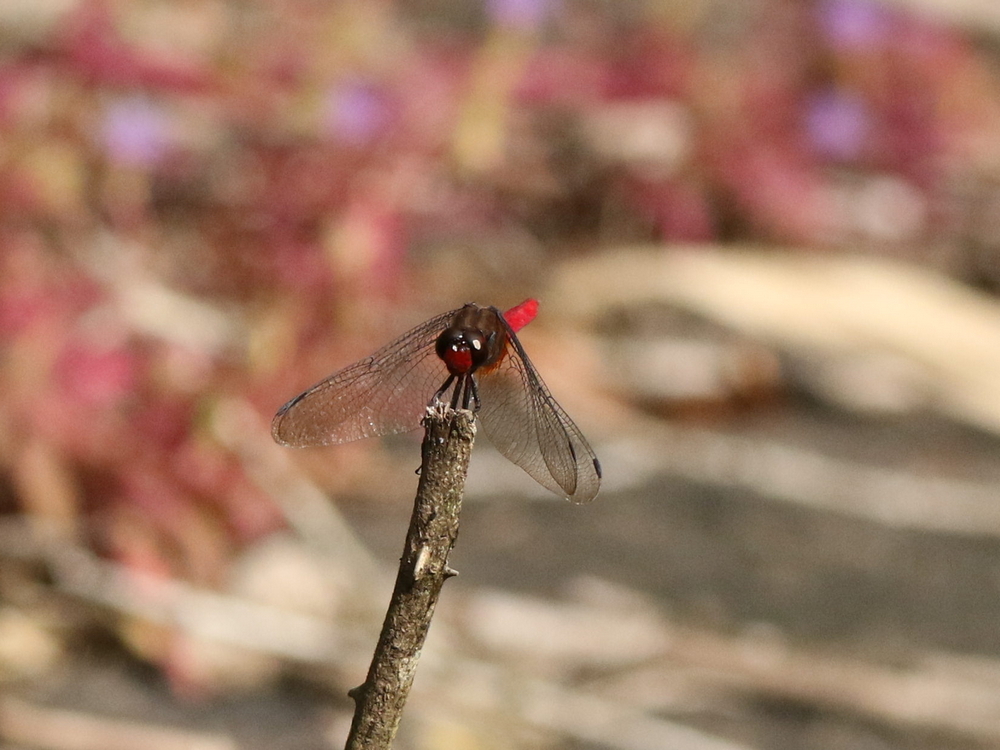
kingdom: Animalia
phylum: Arthropoda
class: Insecta
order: Odonata
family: Libellulidae
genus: Orthetrum
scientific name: Orthetrum chrysis
